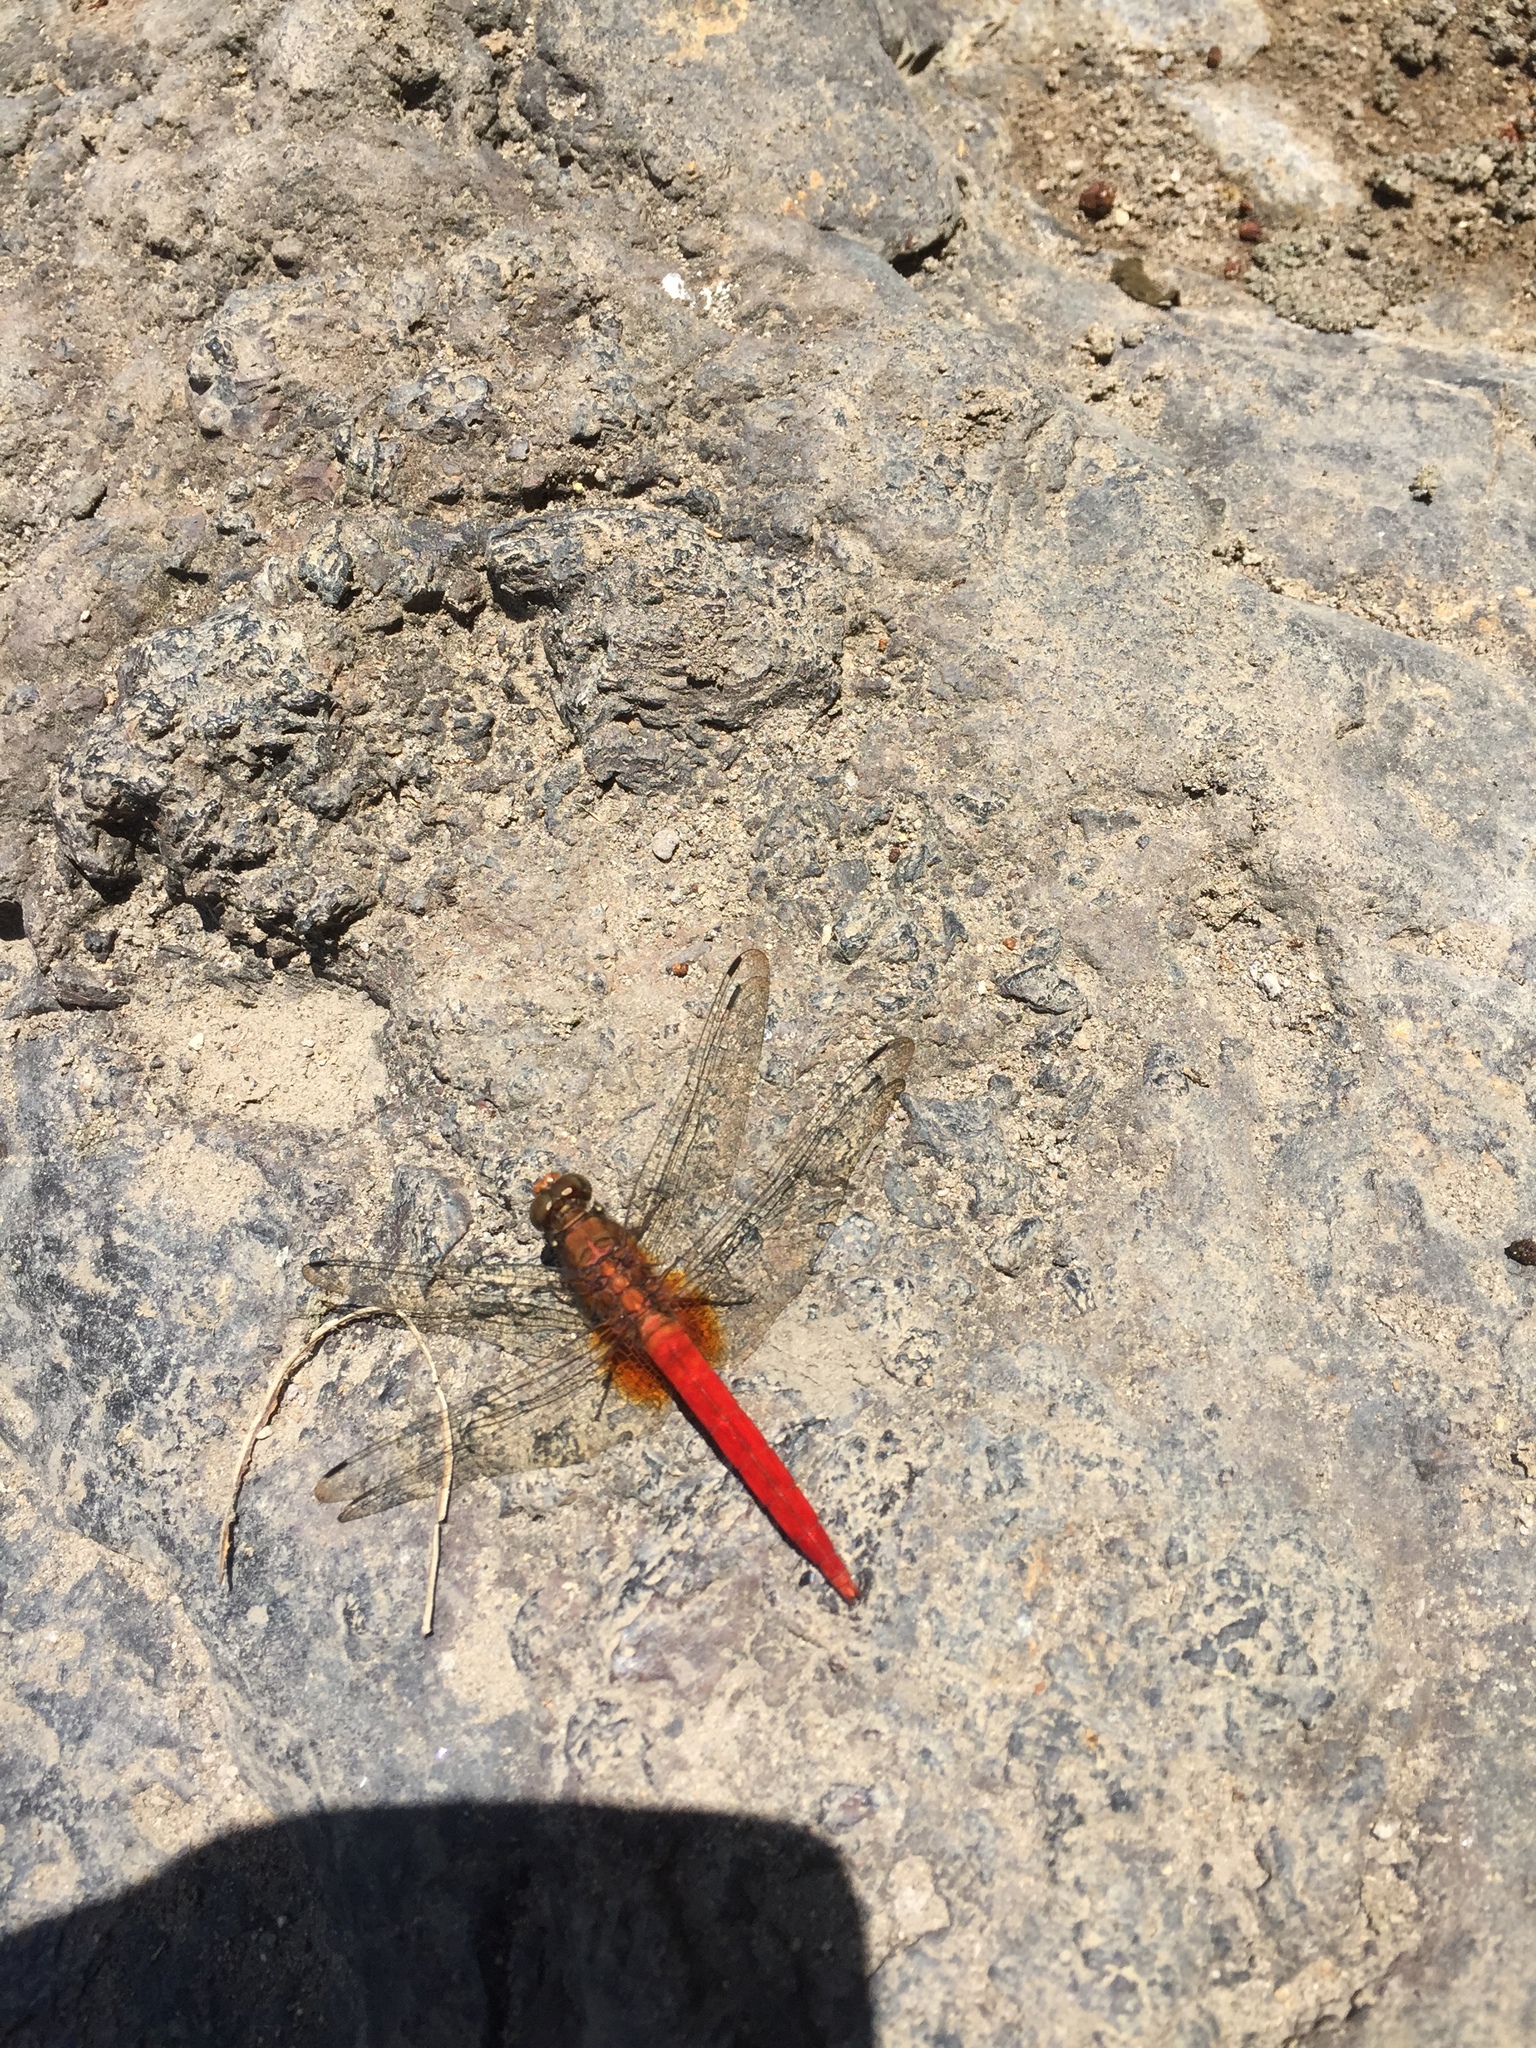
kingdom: Animalia
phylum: Arthropoda
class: Insecta
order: Odonata
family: Libellulidae
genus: Orthetrum
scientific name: Orthetrum testaceum
